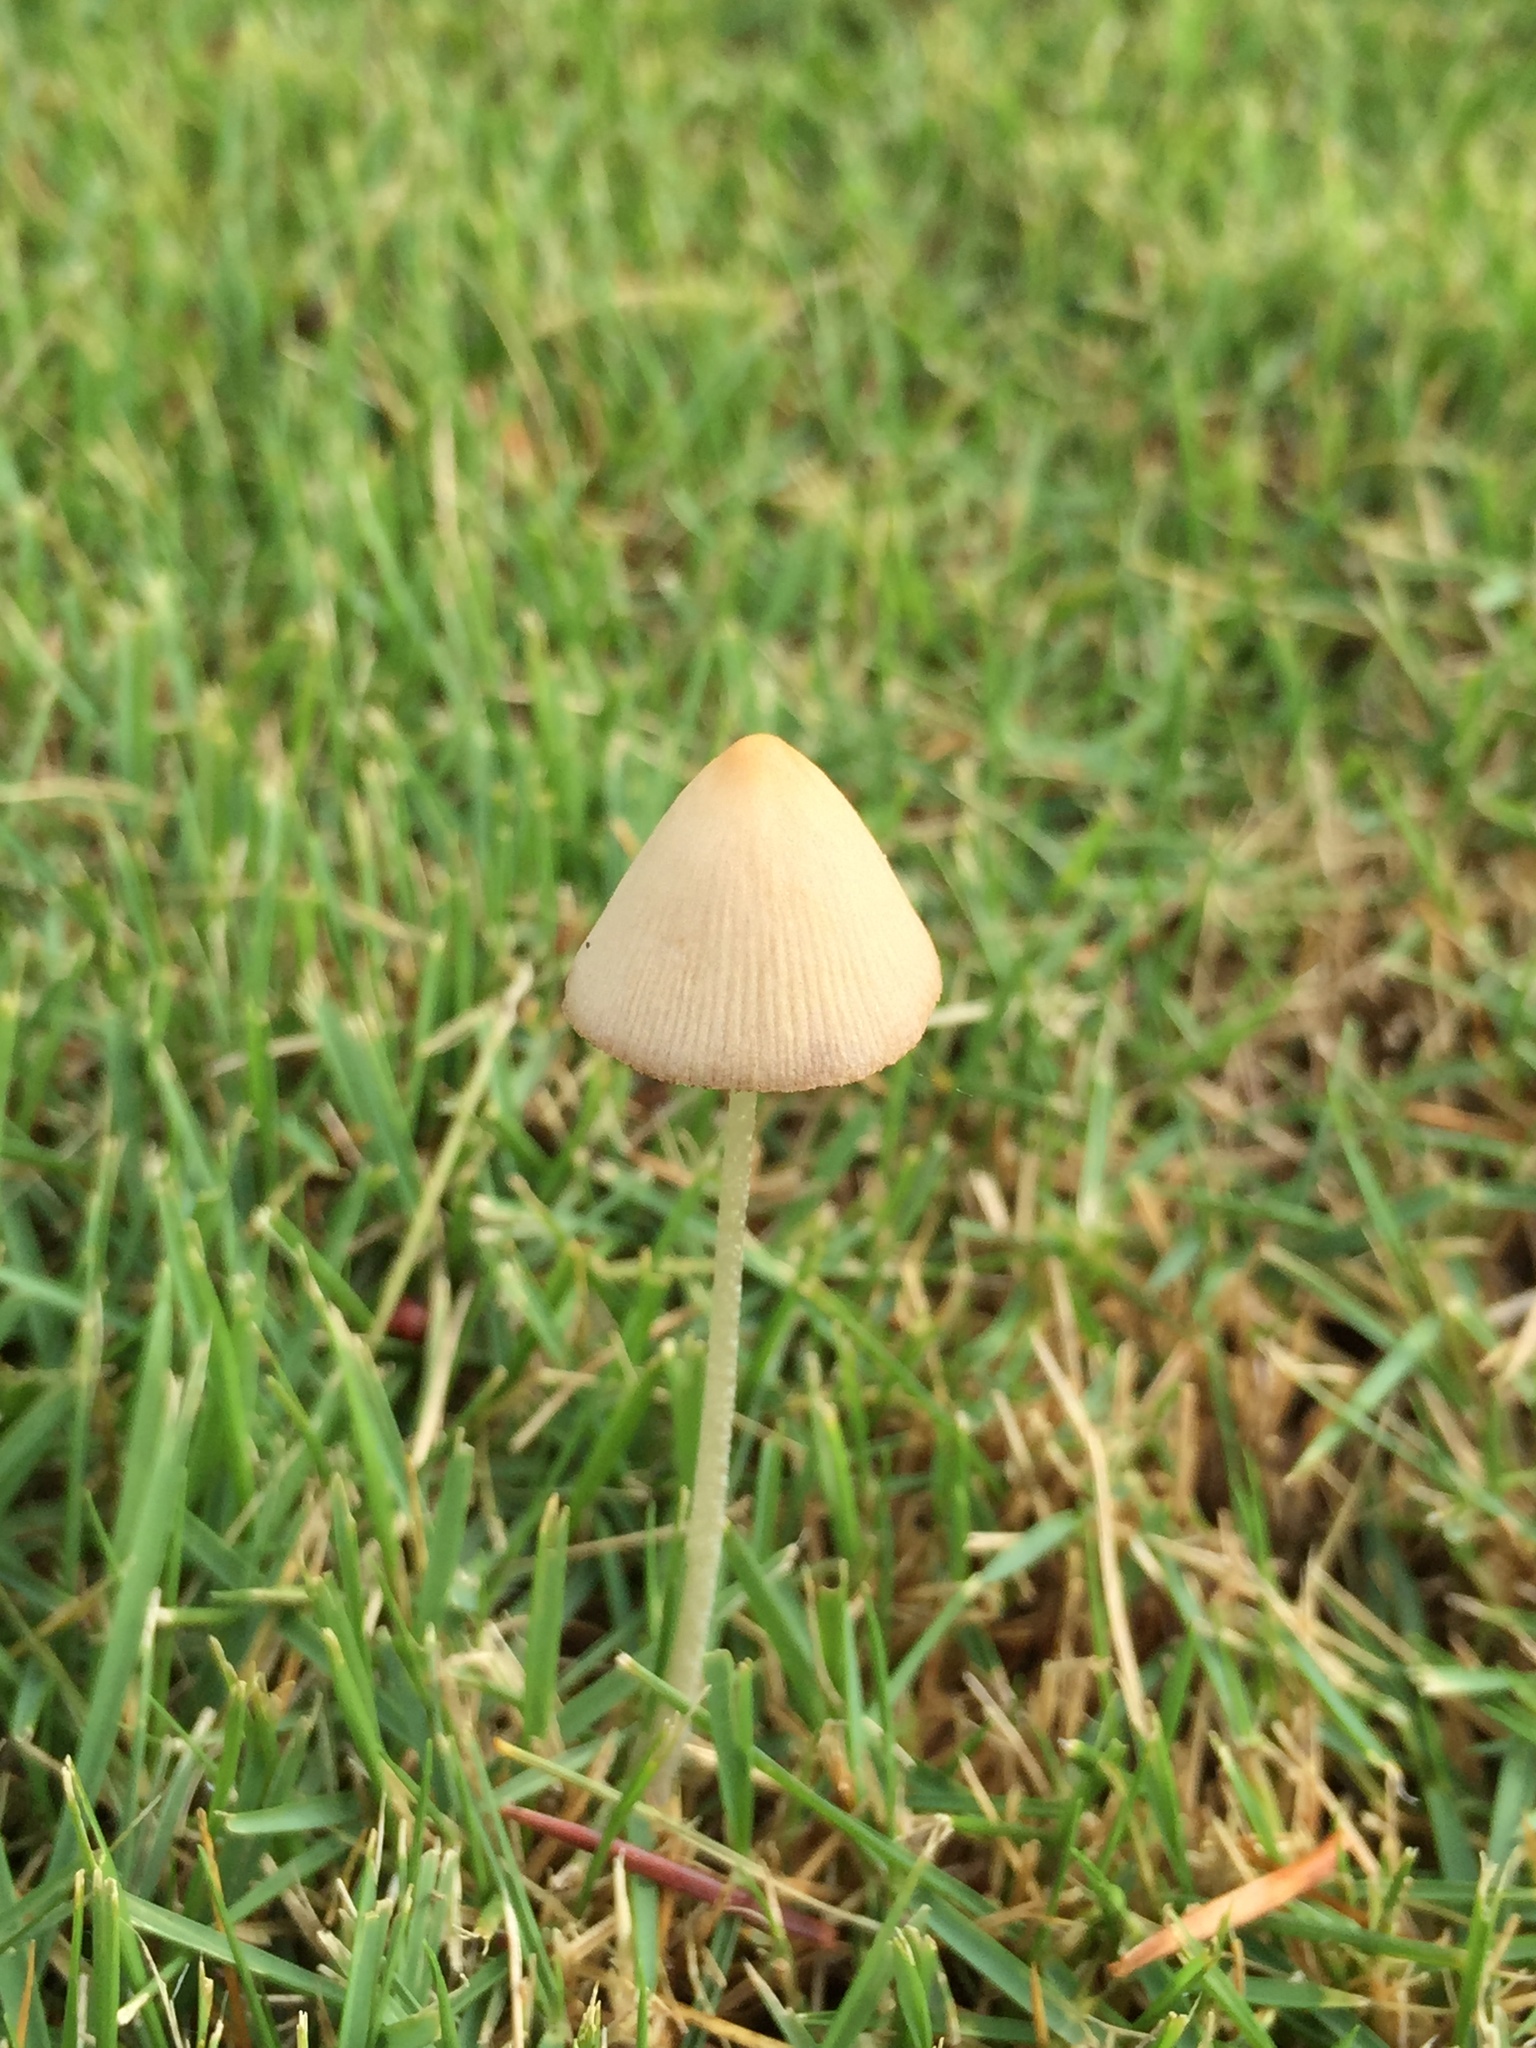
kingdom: Fungi
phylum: Basidiomycota
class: Agaricomycetes
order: Agaricales
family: Bolbitiaceae
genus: Conocybe
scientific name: Conocybe apala
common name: Milky conecap
